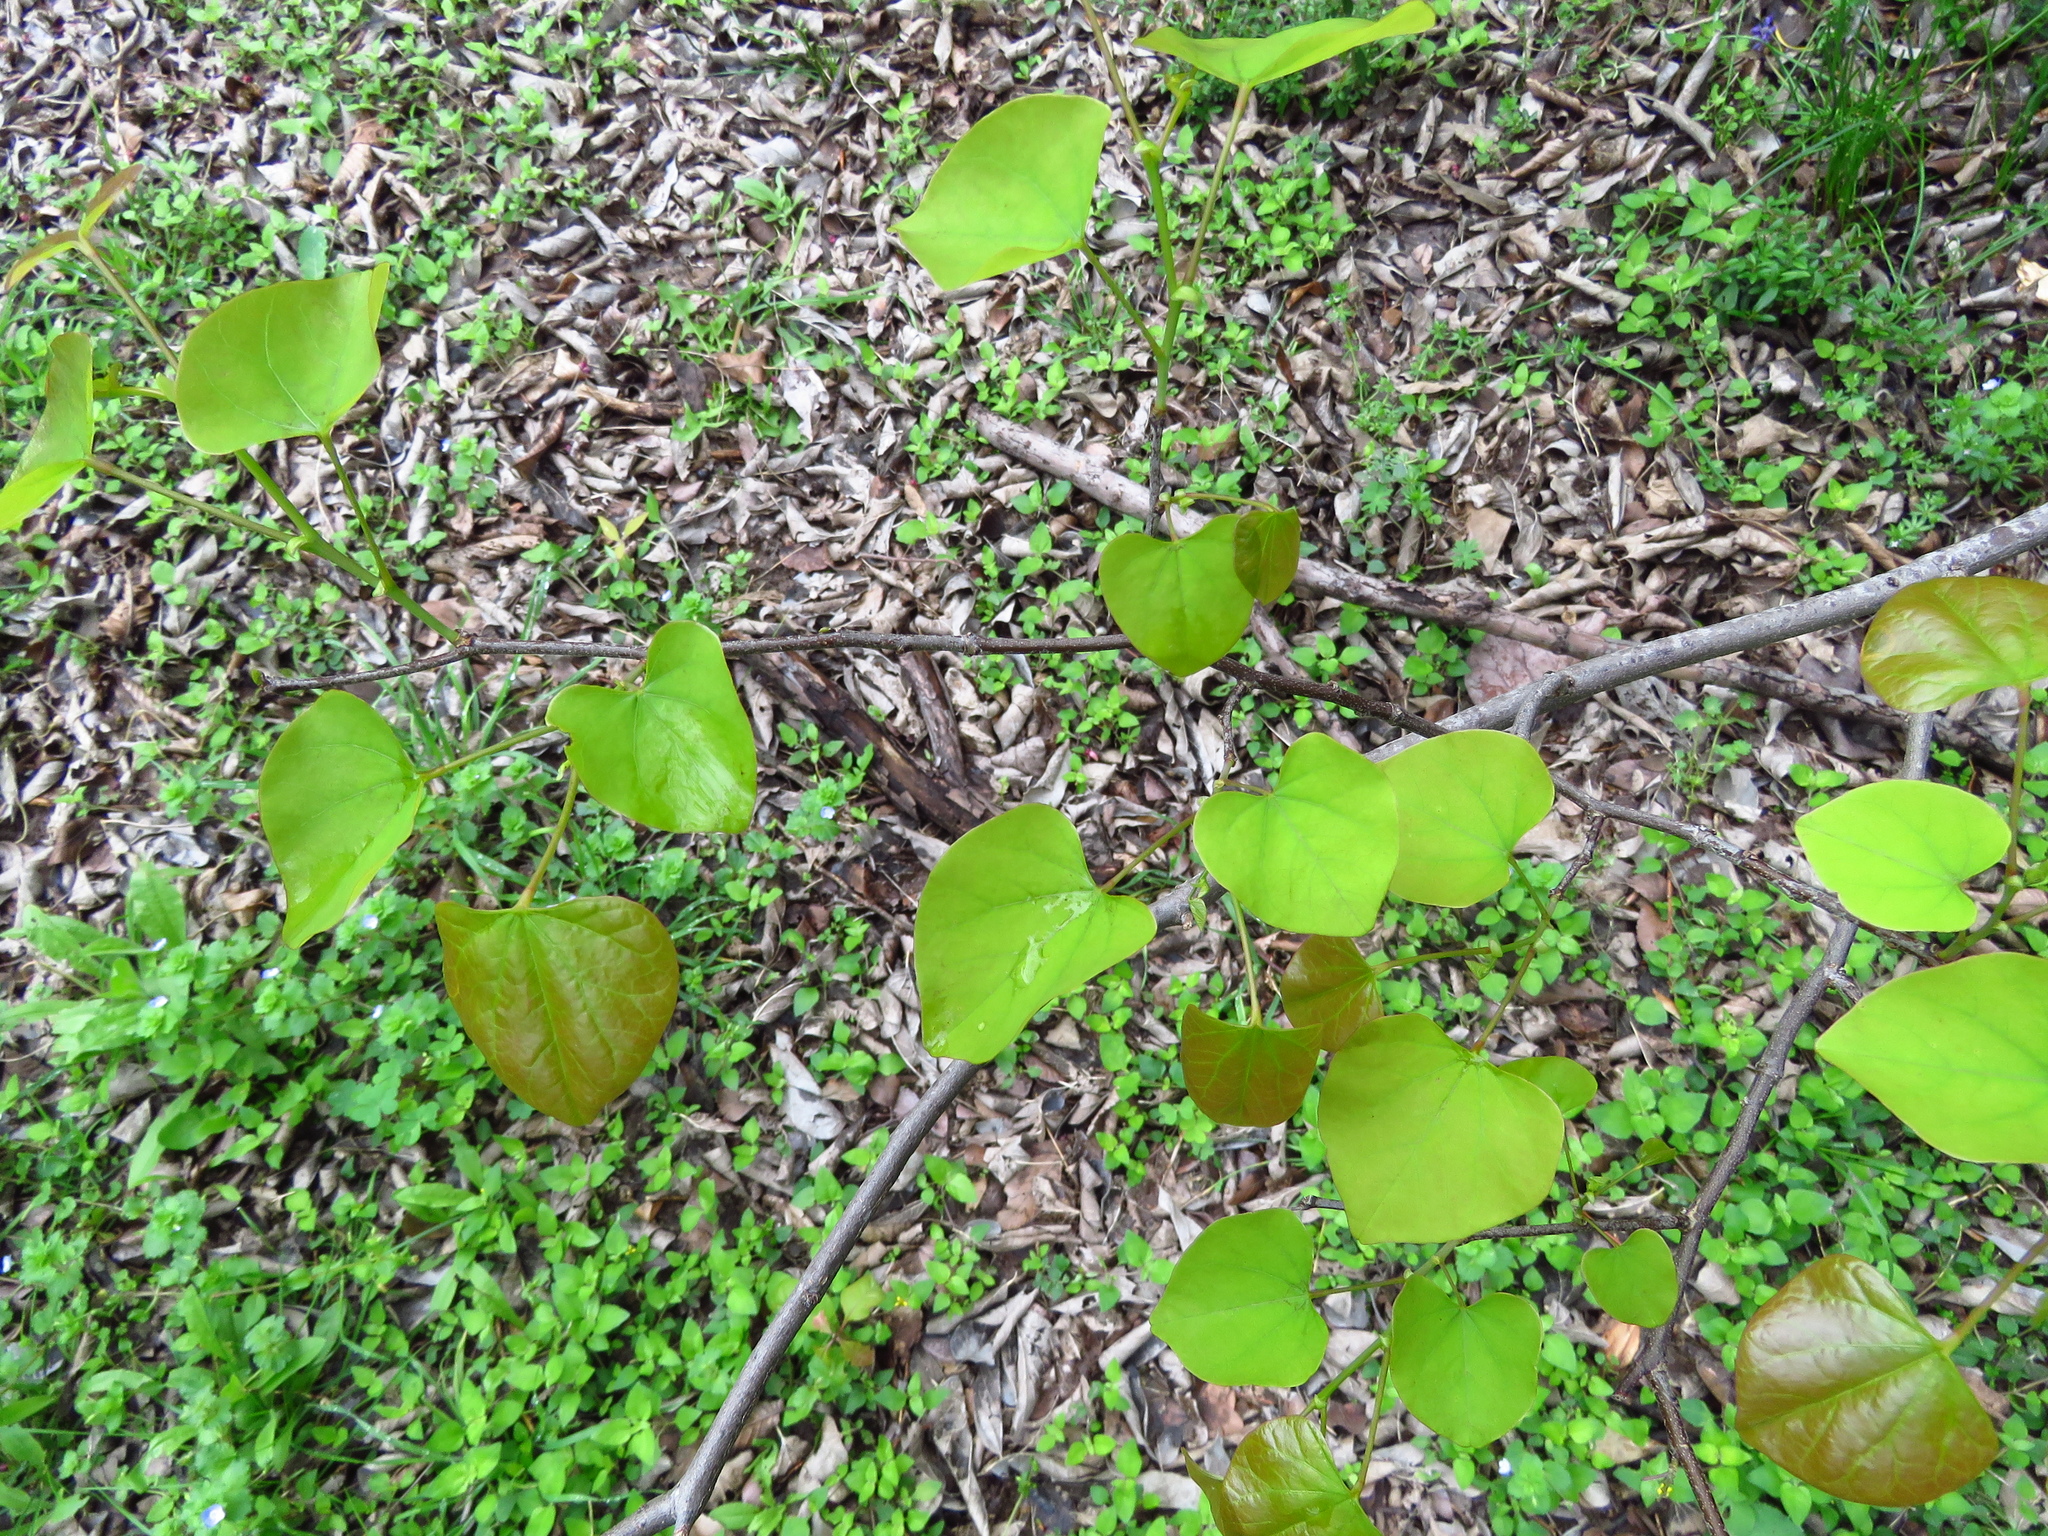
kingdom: Plantae
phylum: Tracheophyta
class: Magnoliopsida
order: Fabales
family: Fabaceae
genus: Cercis
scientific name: Cercis canadensis
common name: Eastern redbud
